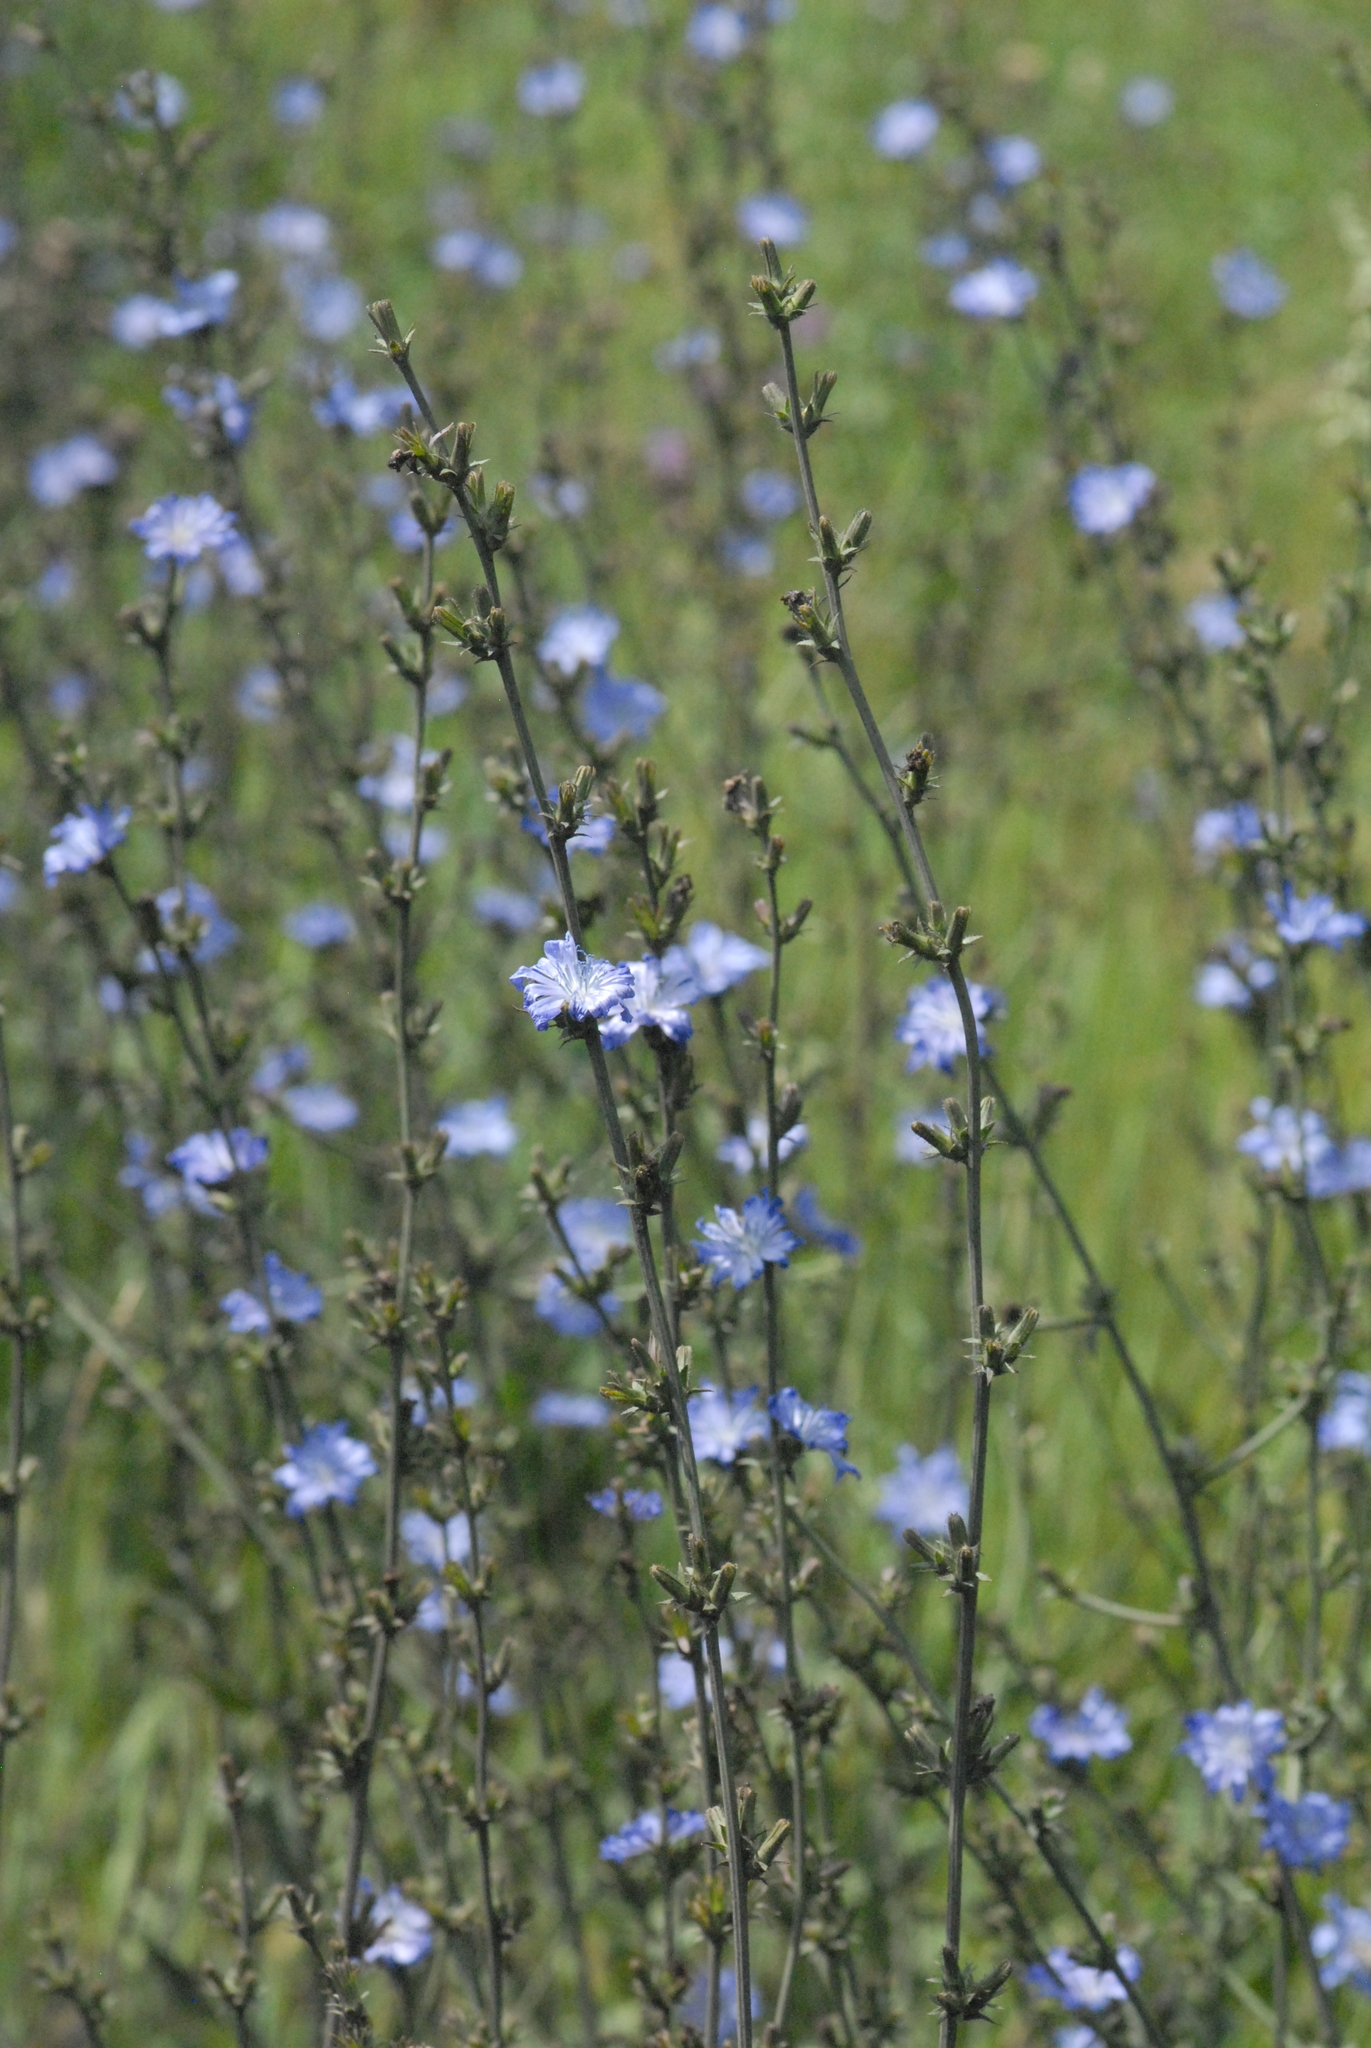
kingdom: Plantae
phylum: Tracheophyta
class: Magnoliopsida
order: Asterales
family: Asteraceae
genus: Cichorium
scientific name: Cichorium intybus
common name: Chicory
